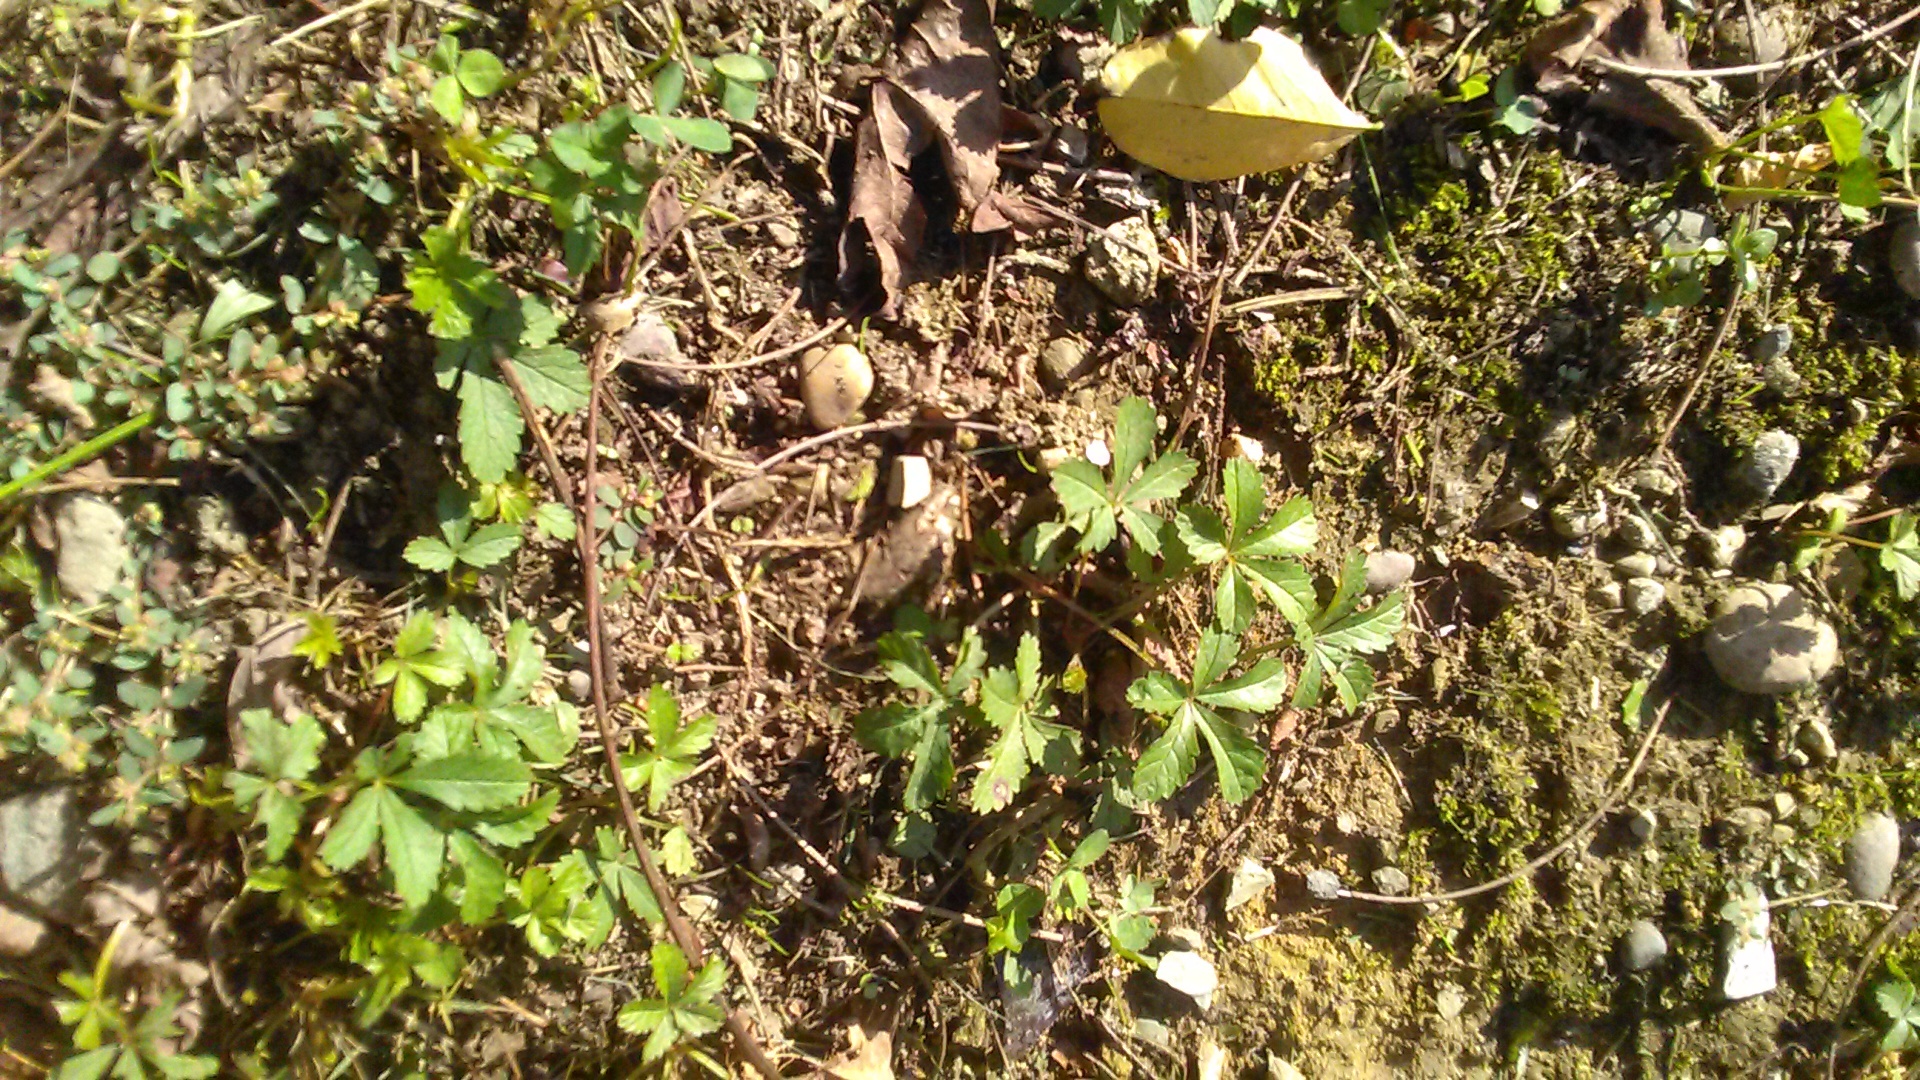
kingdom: Plantae
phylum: Tracheophyta
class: Magnoliopsida
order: Rosales
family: Rosaceae
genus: Potentilla
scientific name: Potentilla reptans
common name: Creeping cinquefoil
